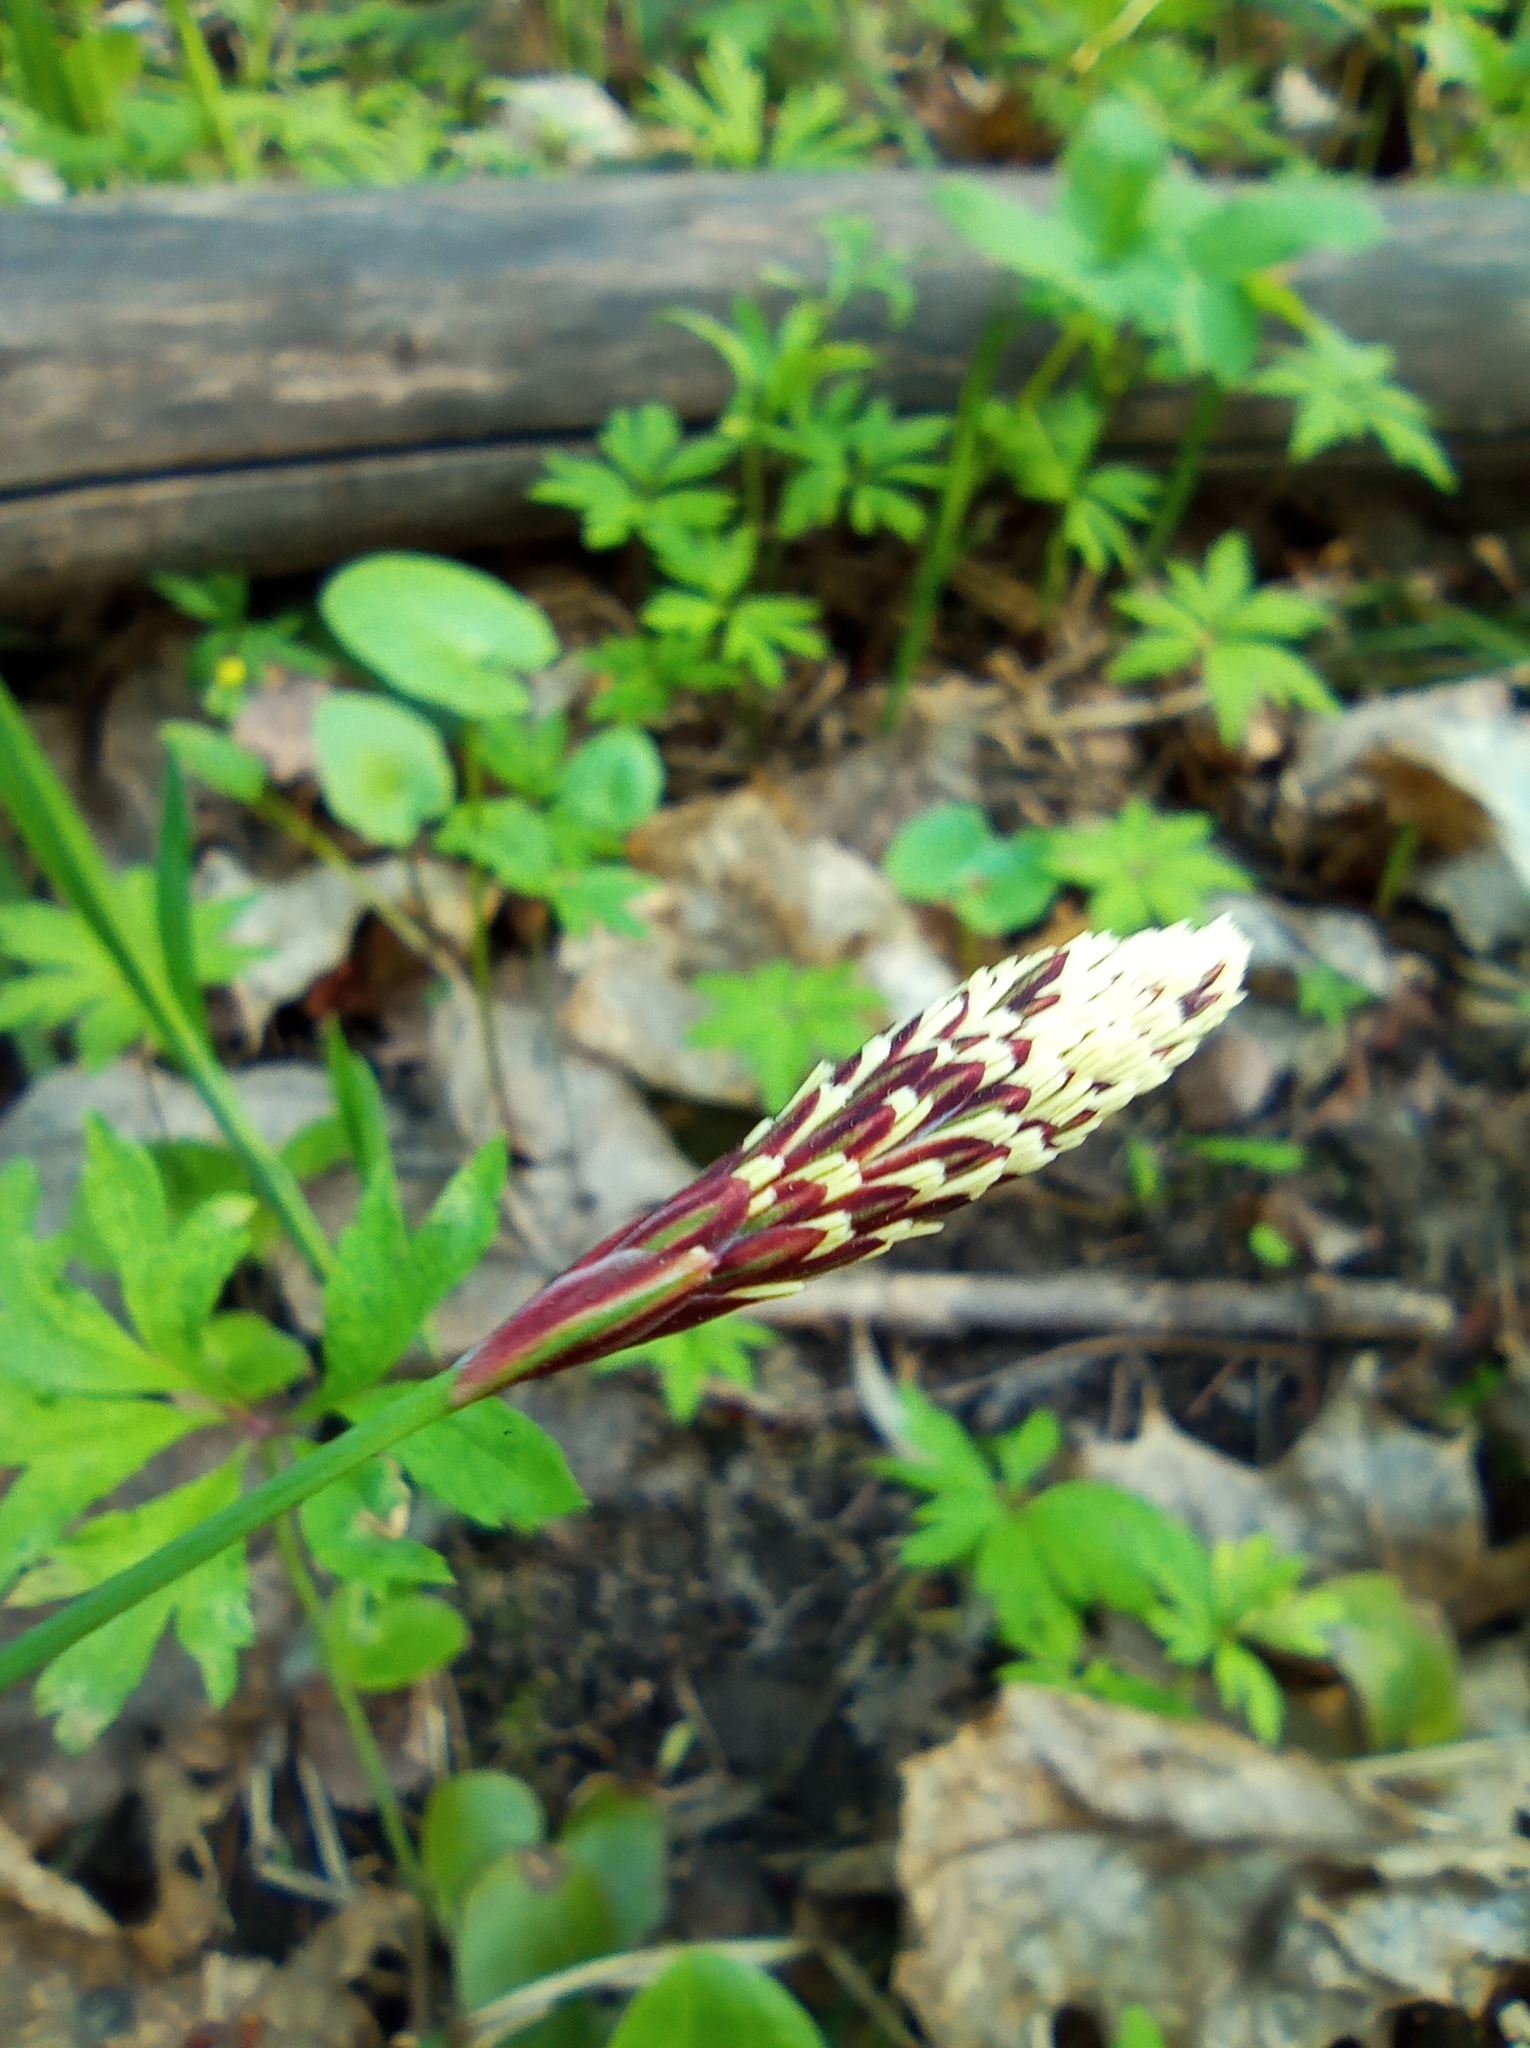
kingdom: Plantae
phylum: Tracheophyta
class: Liliopsida
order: Poales
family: Cyperaceae
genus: Carex
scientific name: Carex pilosa
